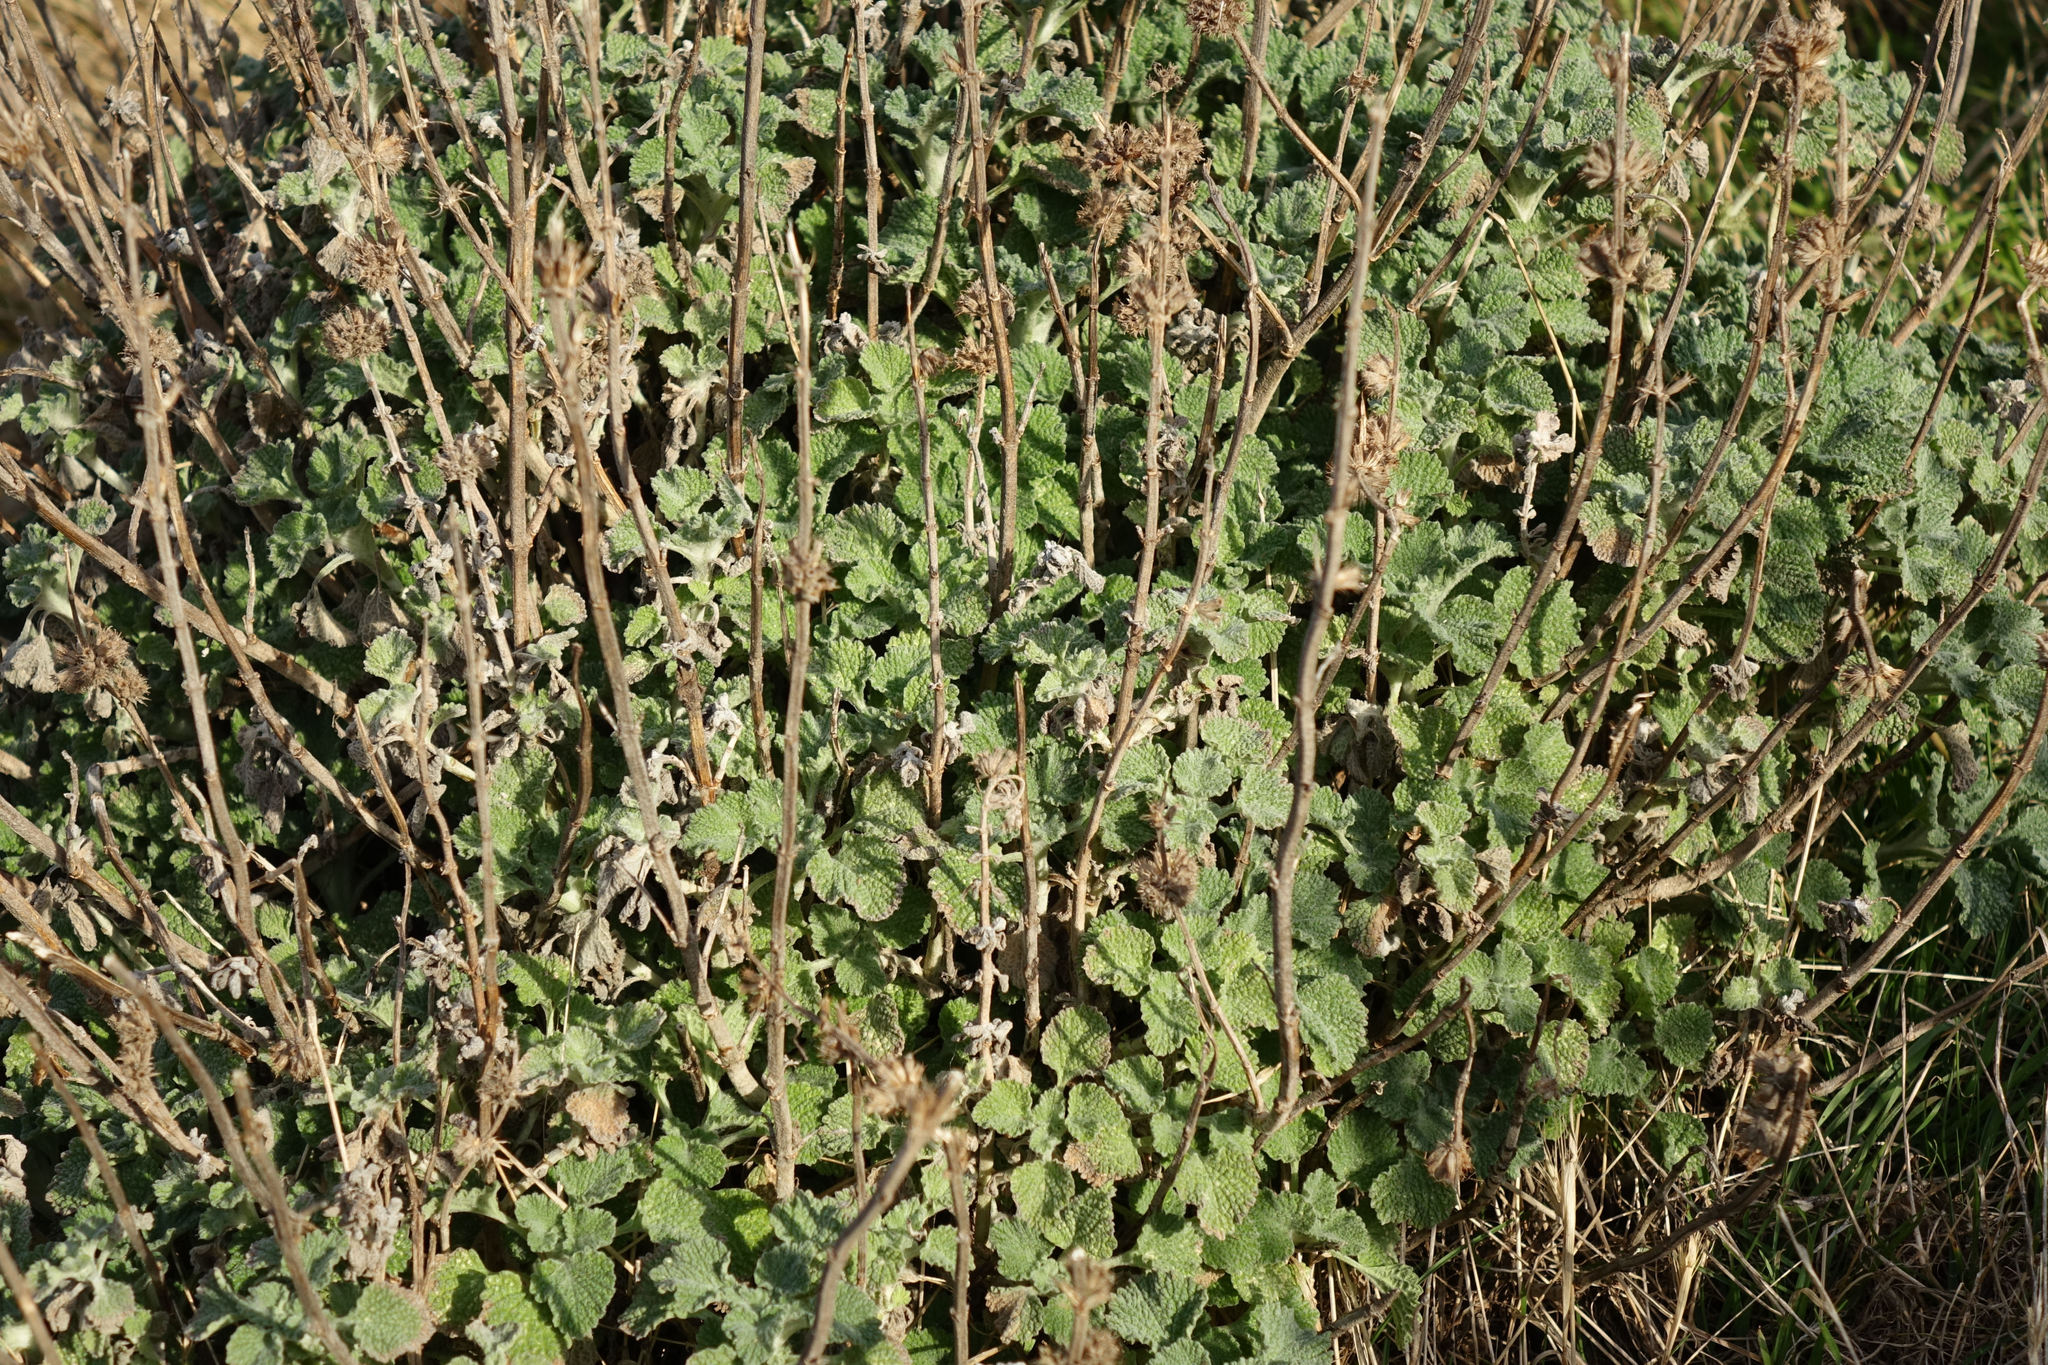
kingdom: Plantae
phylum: Tracheophyta
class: Magnoliopsida
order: Lamiales
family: Lamiaceae
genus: Marrubium
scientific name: Marrubium vulgare
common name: Horehound
